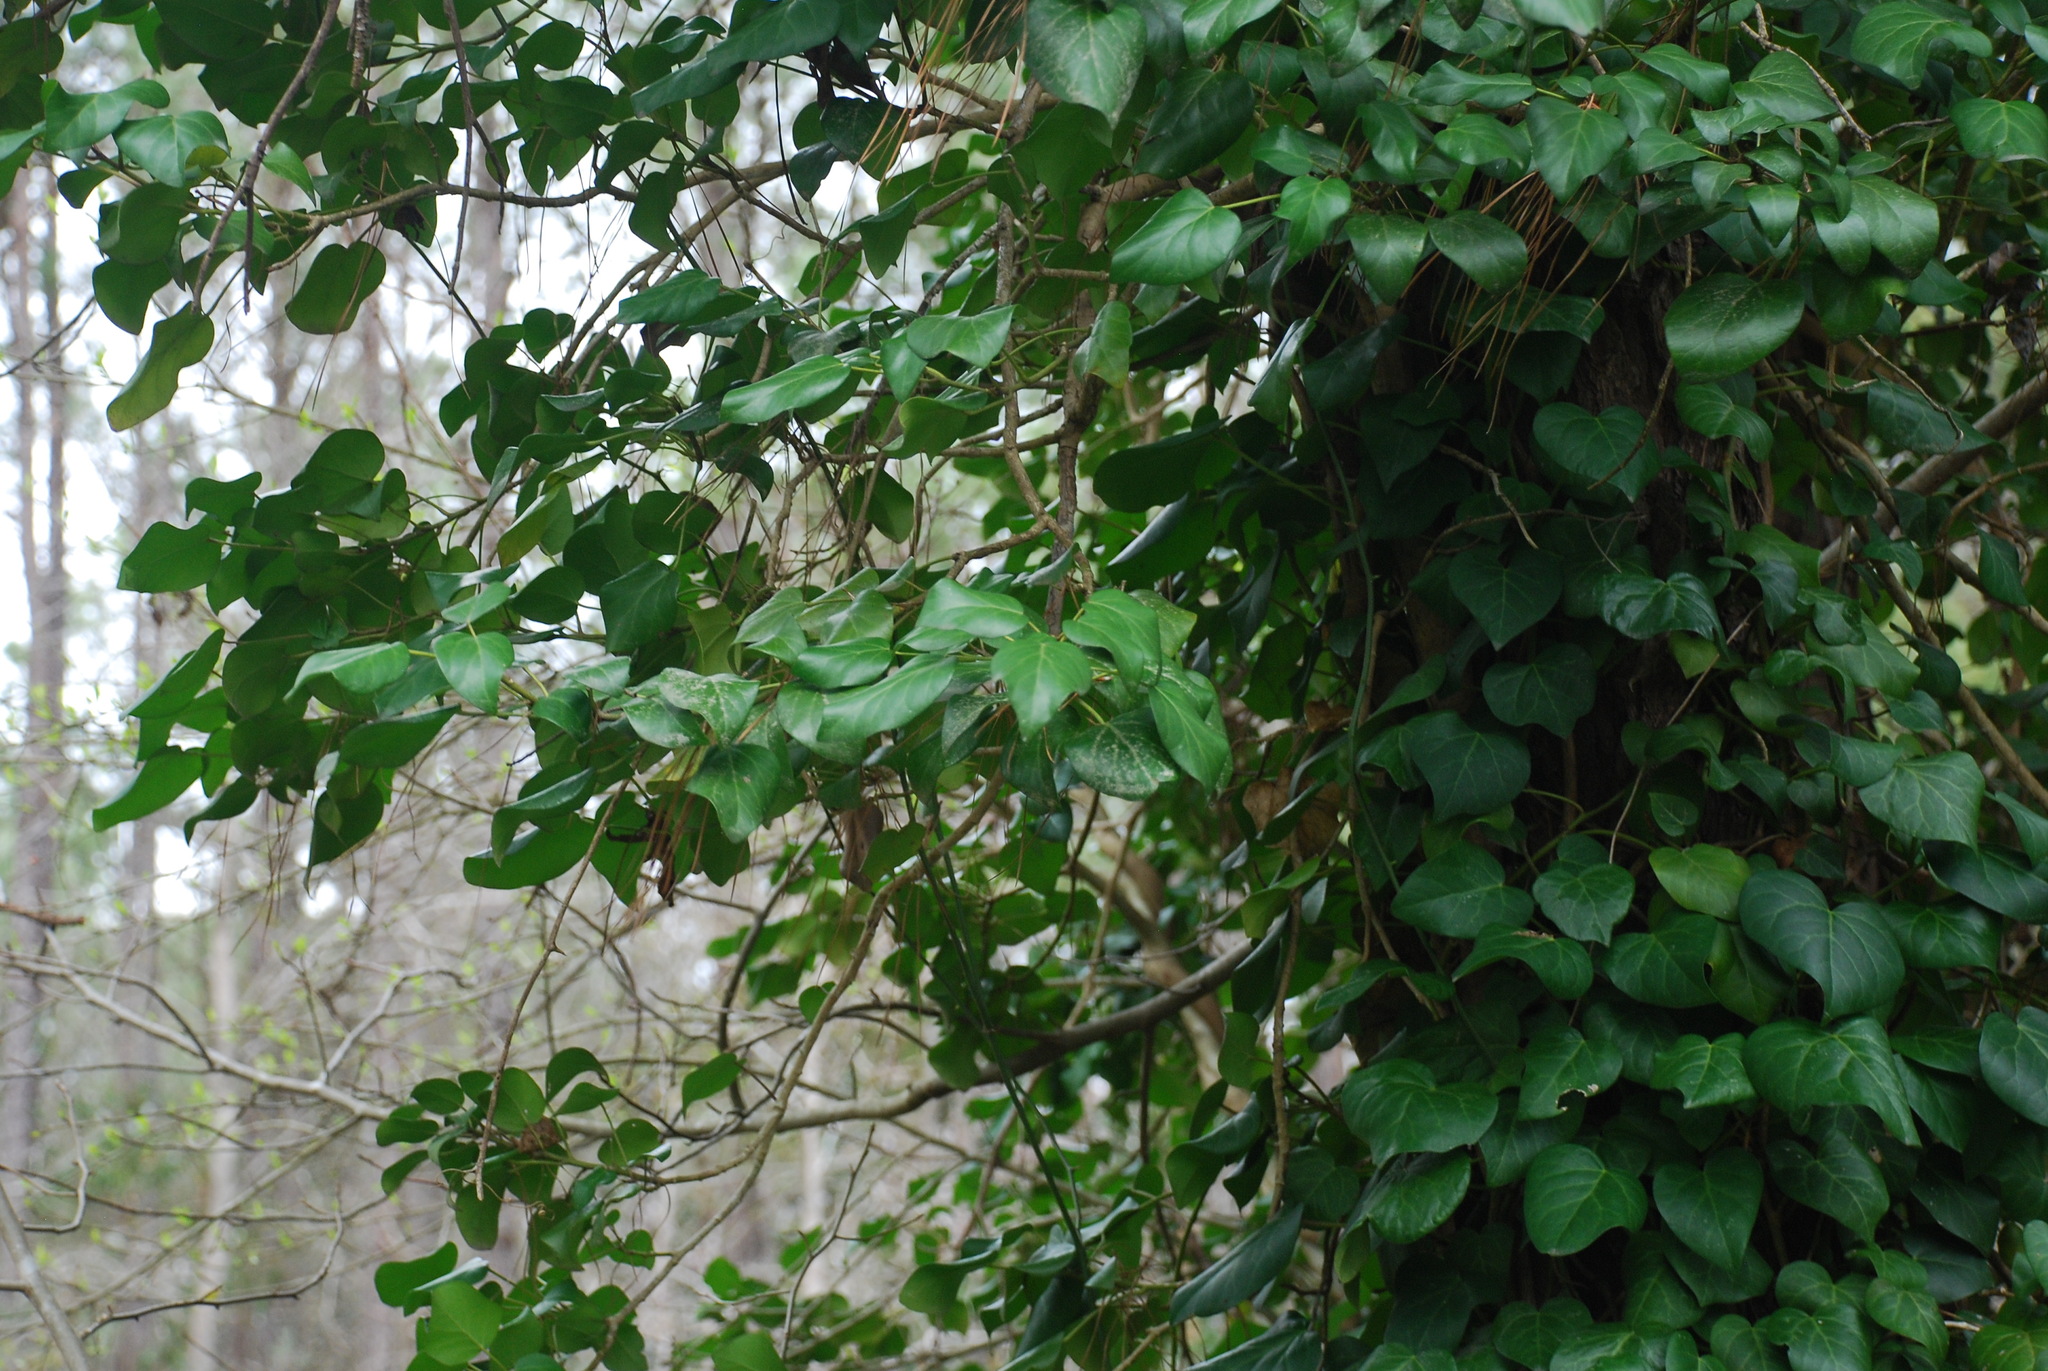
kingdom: Plantae
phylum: Tracheophyta
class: Magnoliopsida
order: Apiales
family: Araliaceae
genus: Hedera
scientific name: Hedera colchica
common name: Persian ivy
